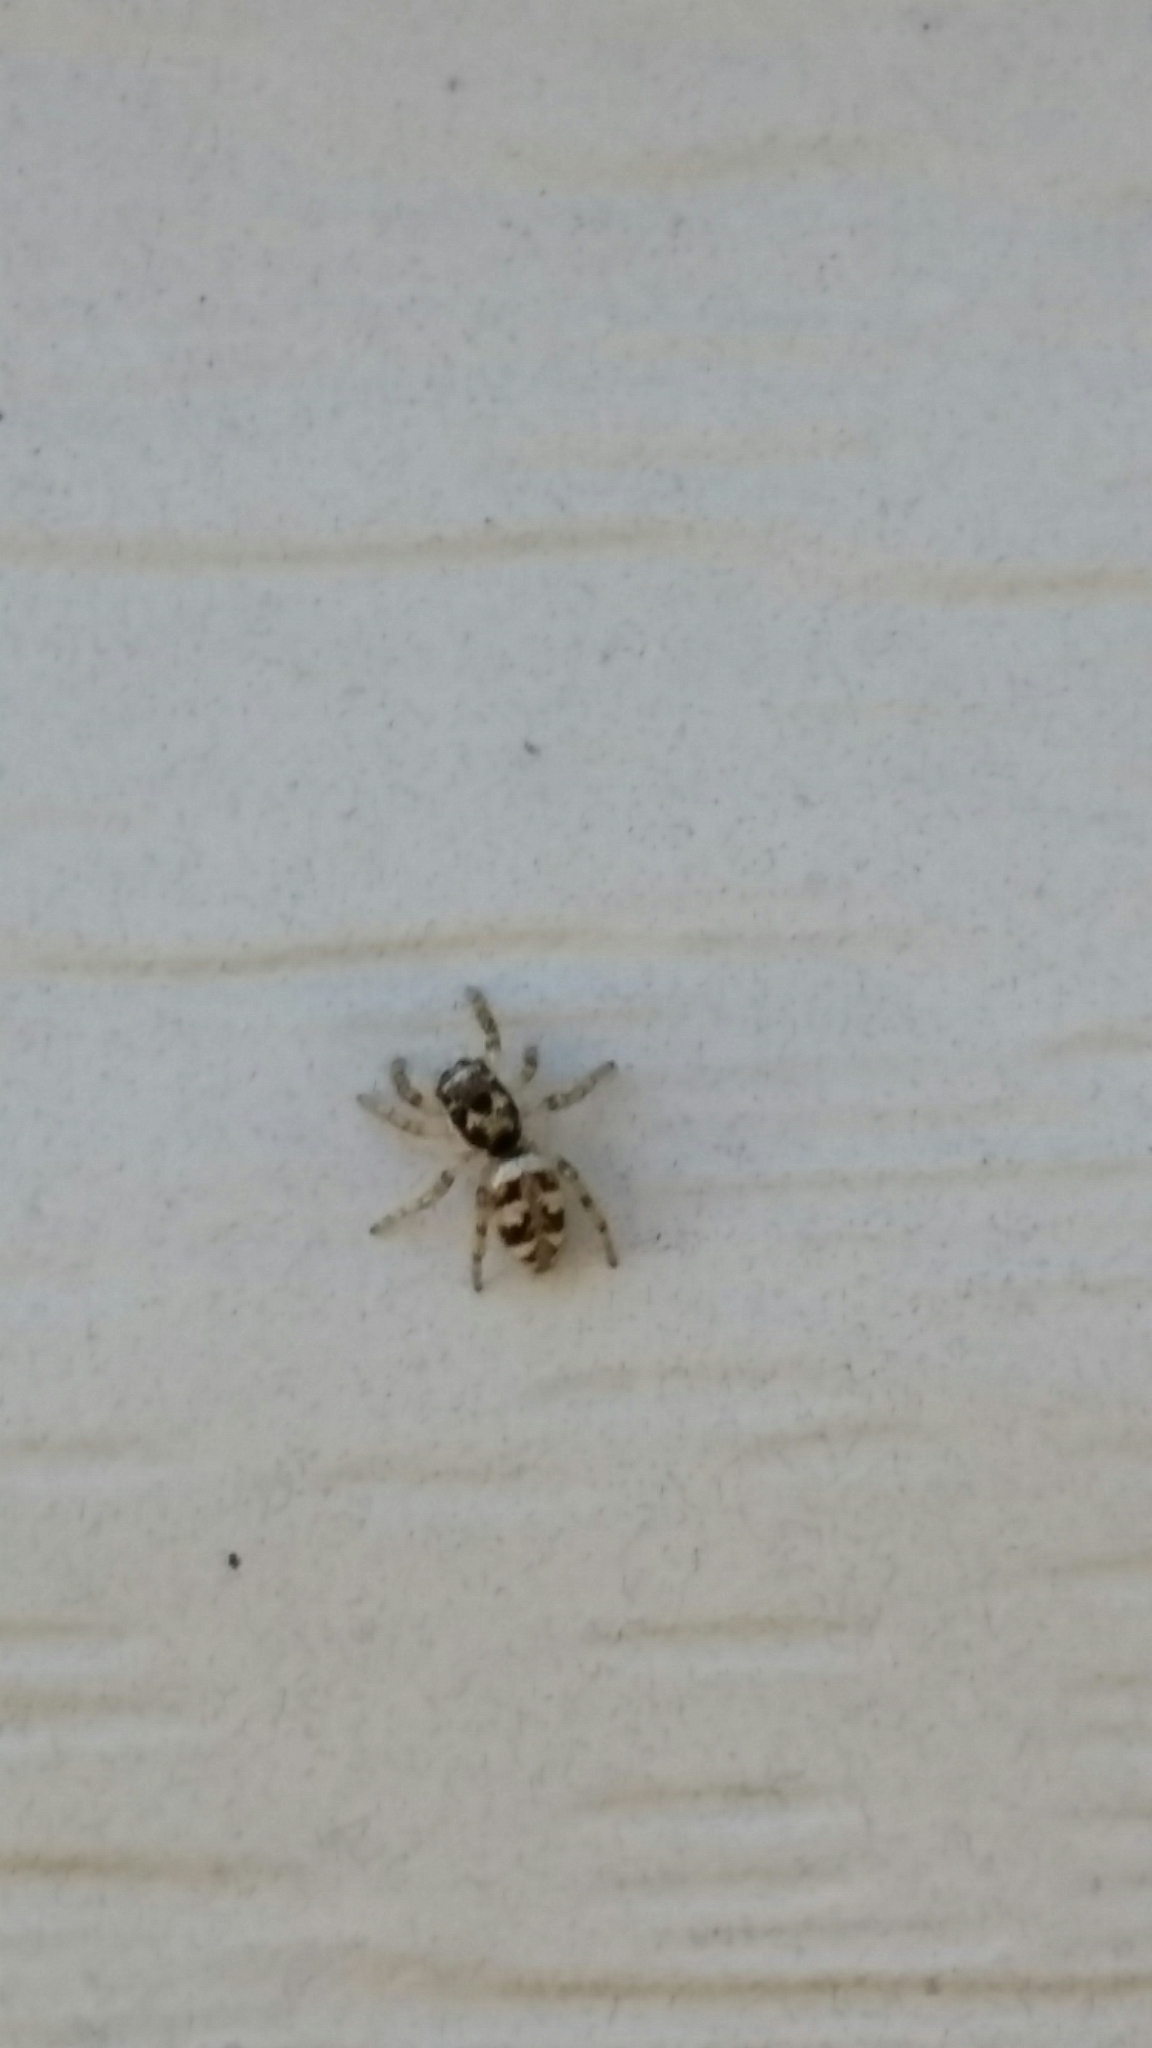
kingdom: Animalia
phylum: Arthropoda
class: Arachnida
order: Araneae
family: Salticidae
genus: Salticus
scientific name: Salticus scenicus
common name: Zebra jumper
